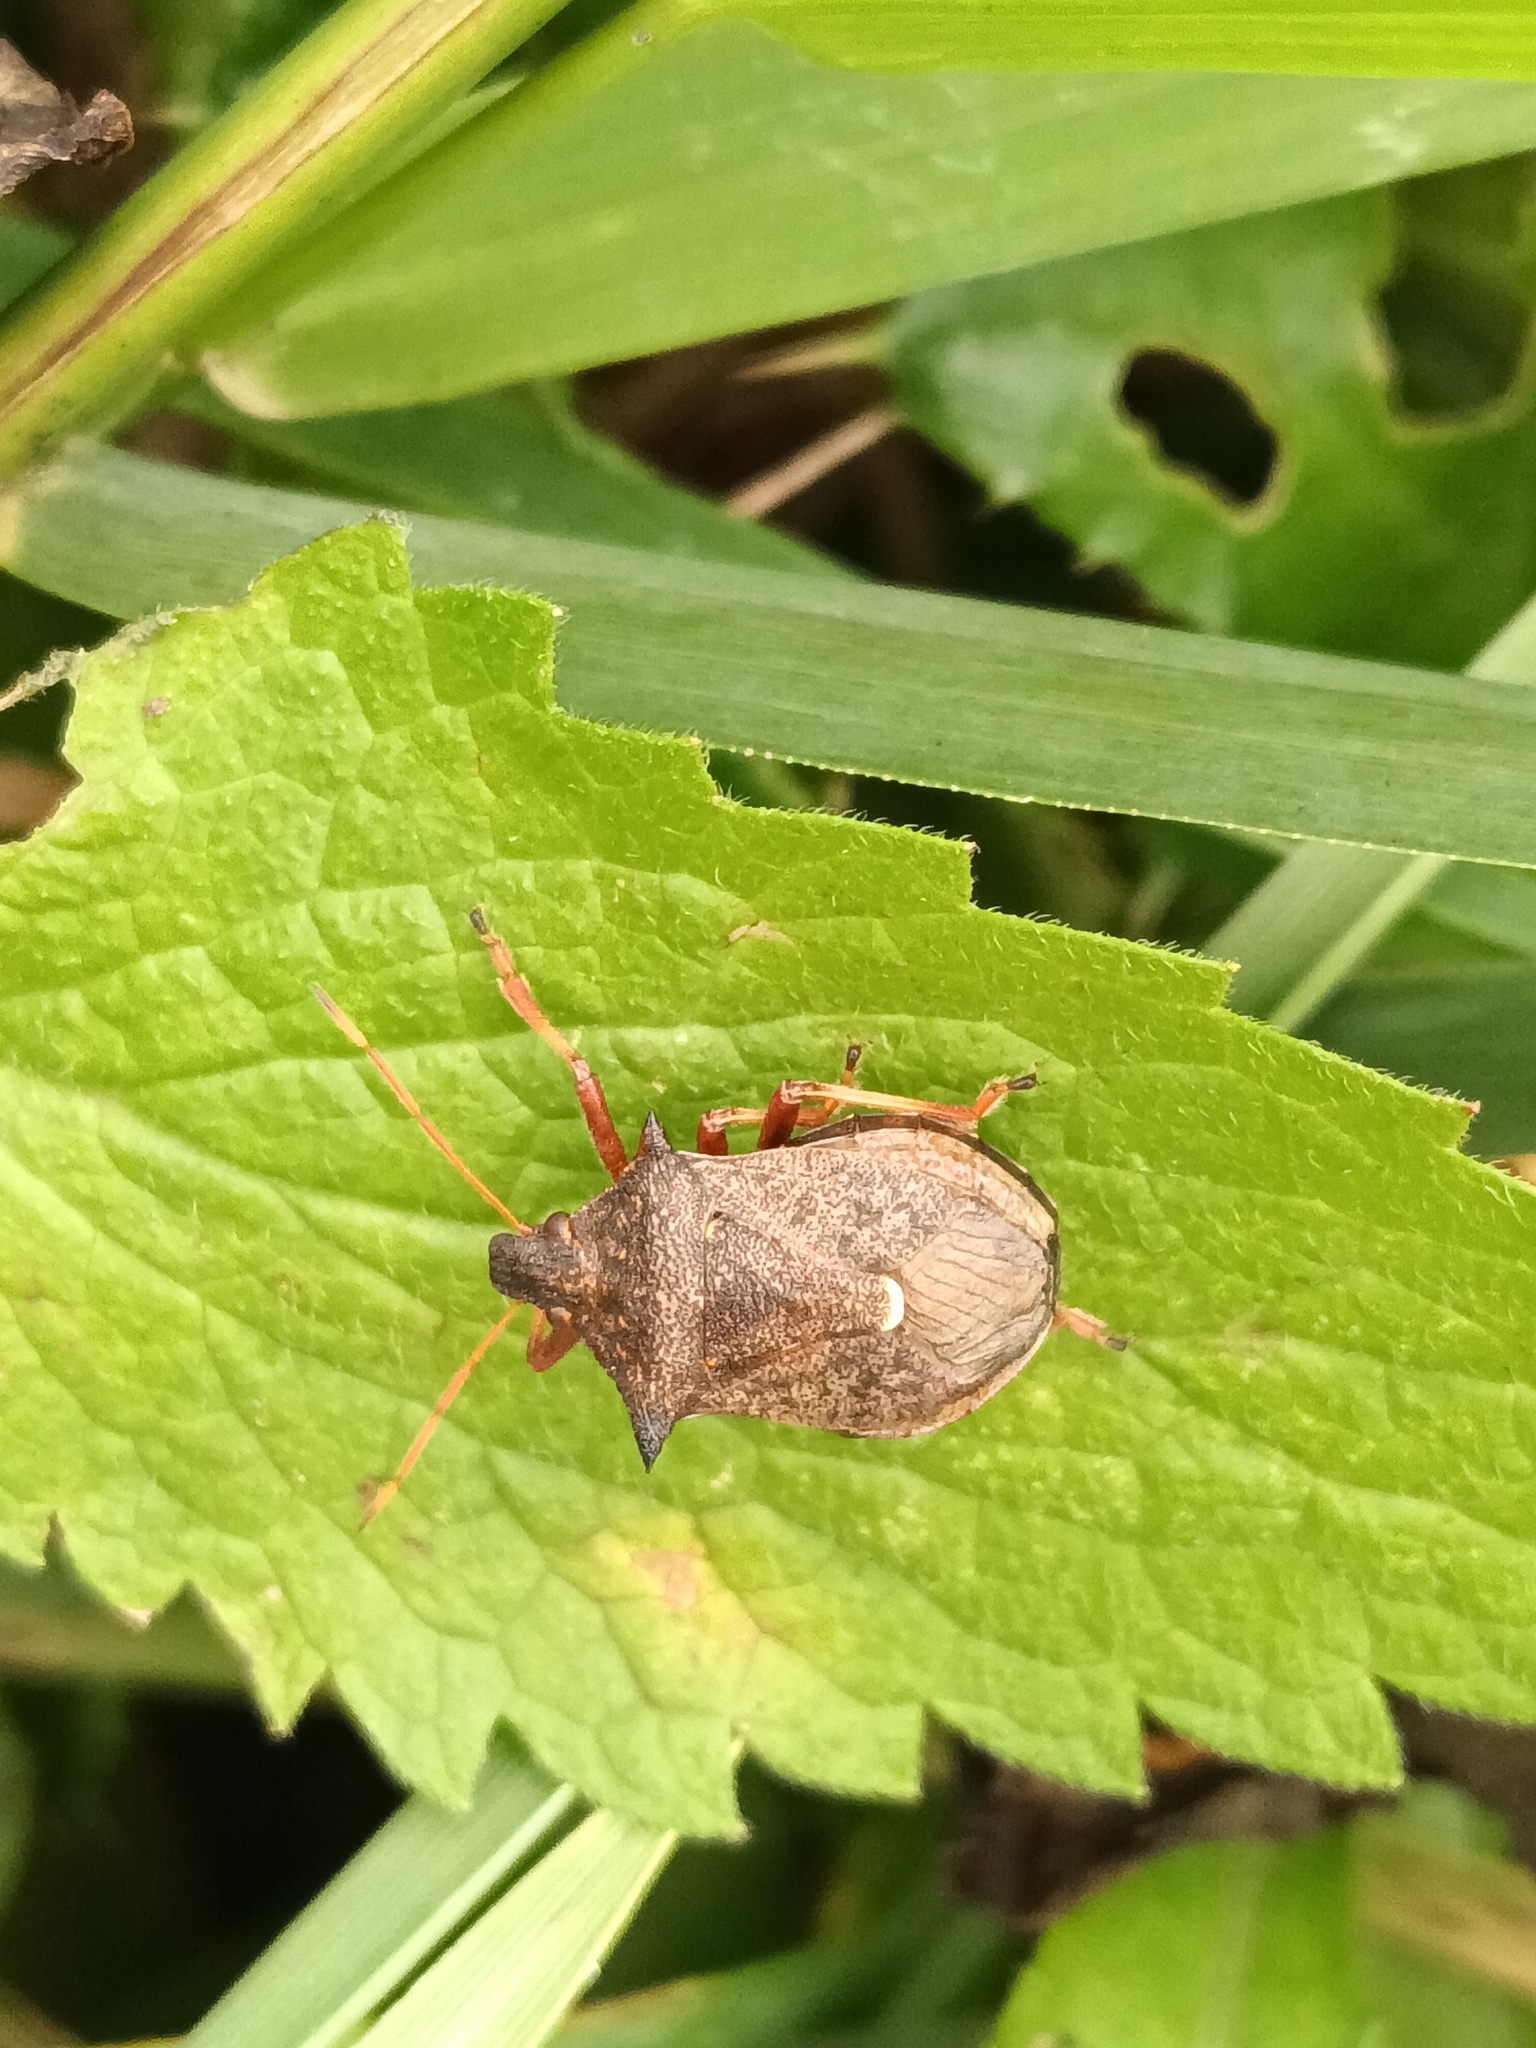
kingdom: Animalia
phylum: Arthropoda
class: Insecta
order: Hemiptera
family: Pentatomidae
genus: Picromerus
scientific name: Picromerus bidens
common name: Spiked shieldbug
